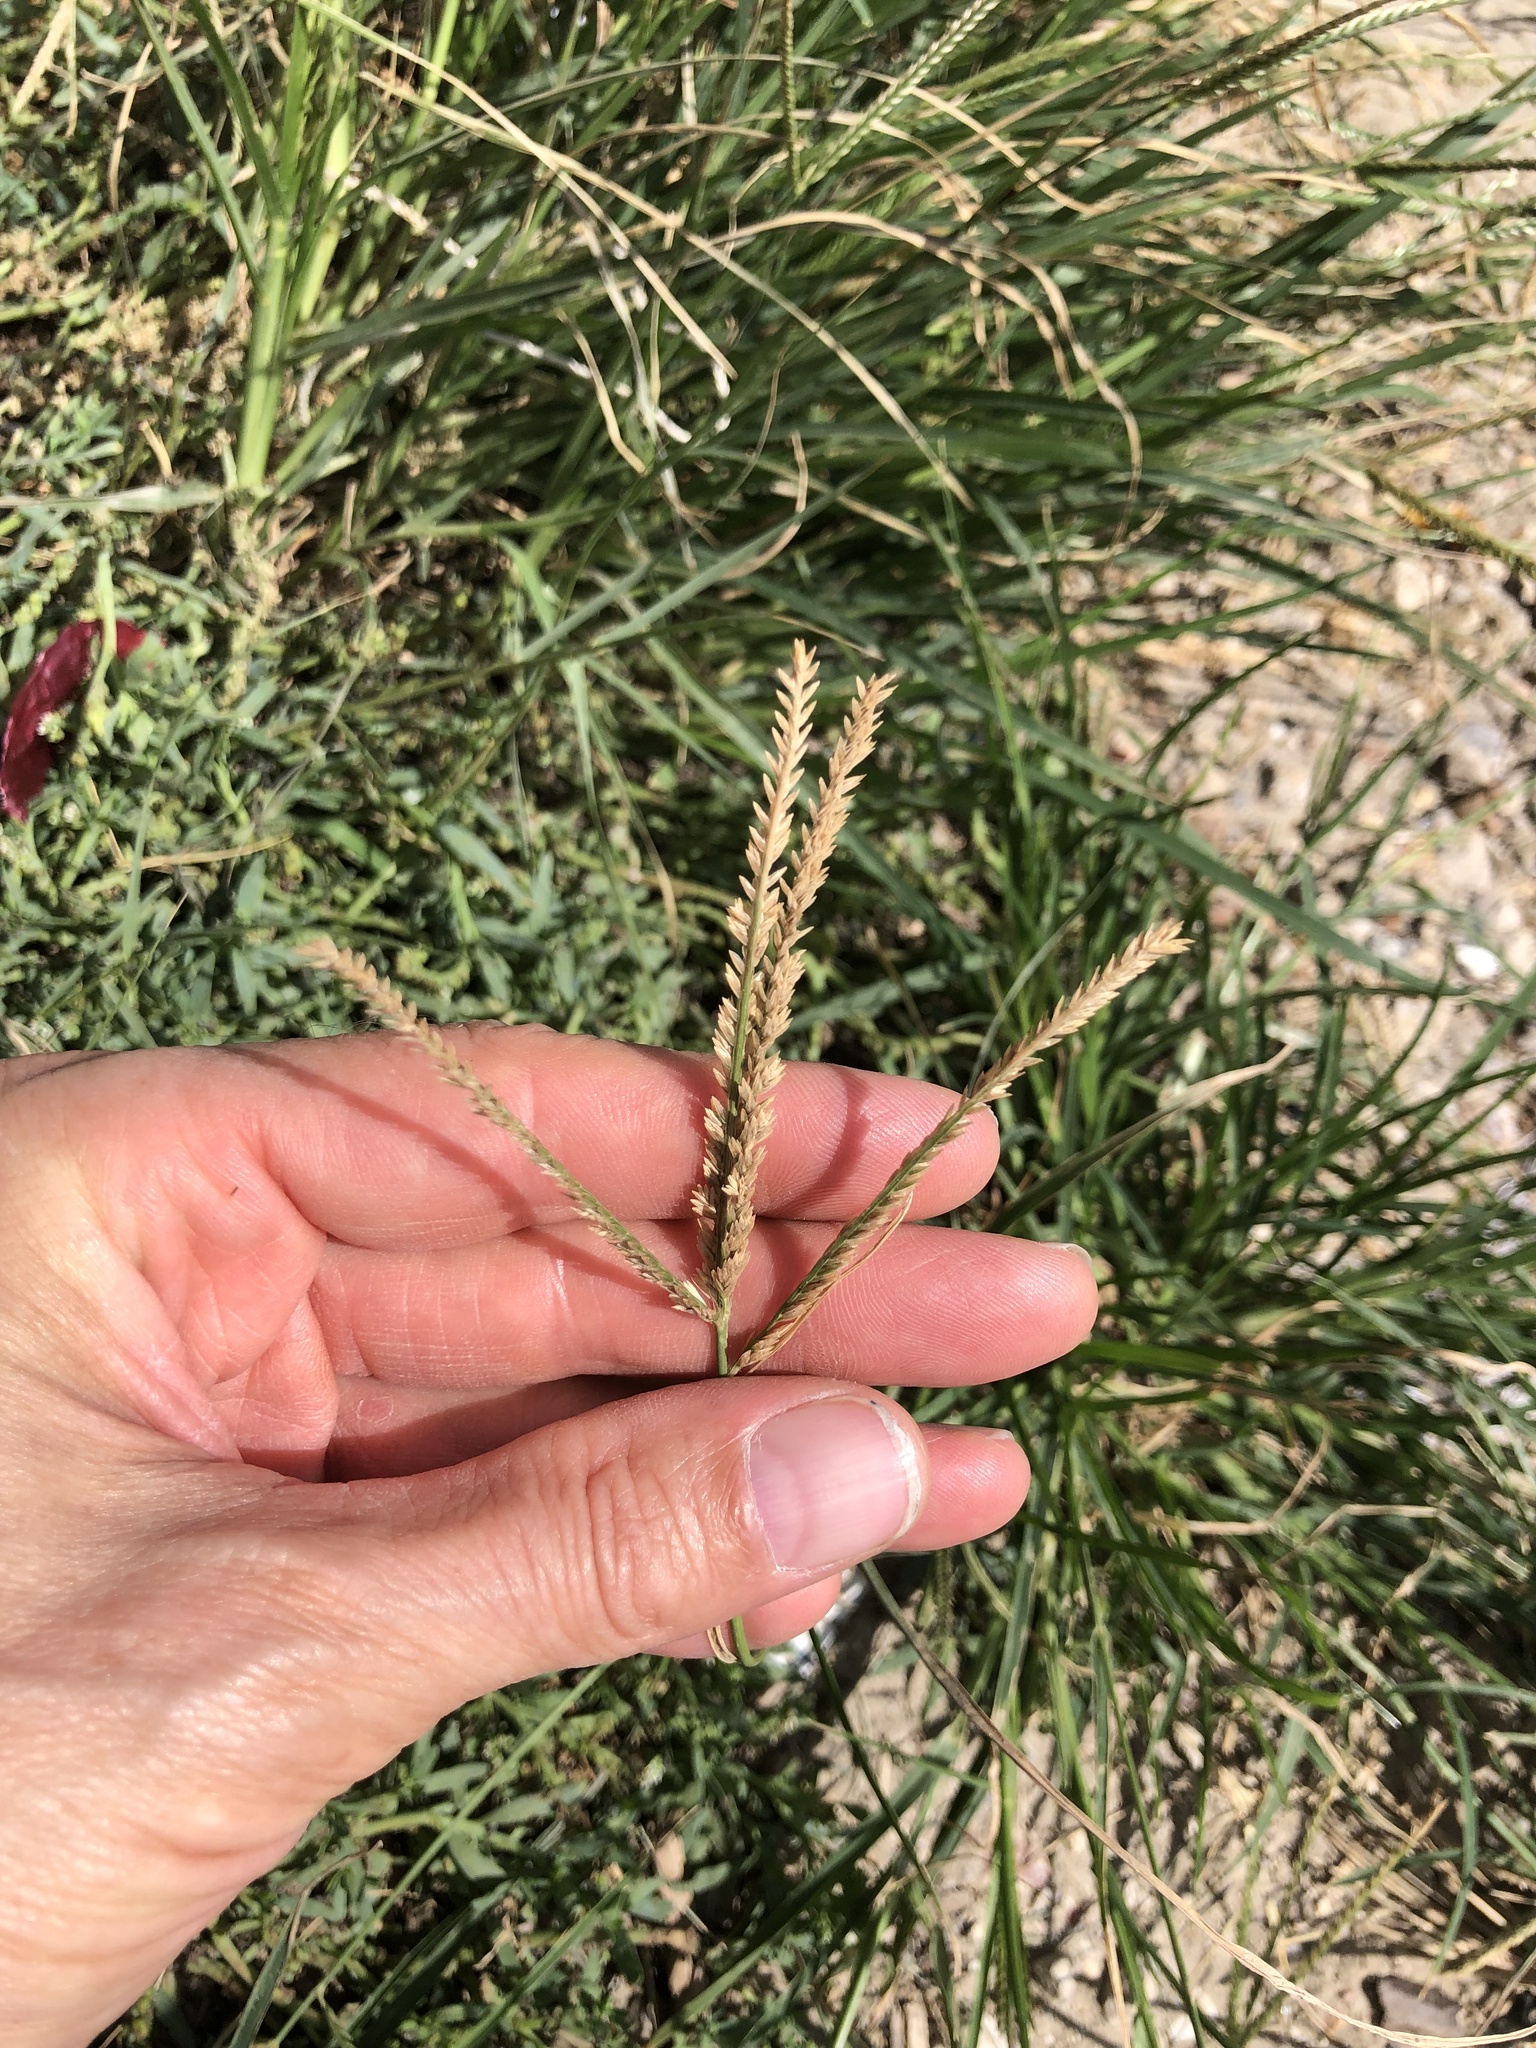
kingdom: Plantae
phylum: Tracheophyta
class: Liliopsida
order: Poales
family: Poaceae
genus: Eleusine
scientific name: Eleusine indica
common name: Yard-grass
